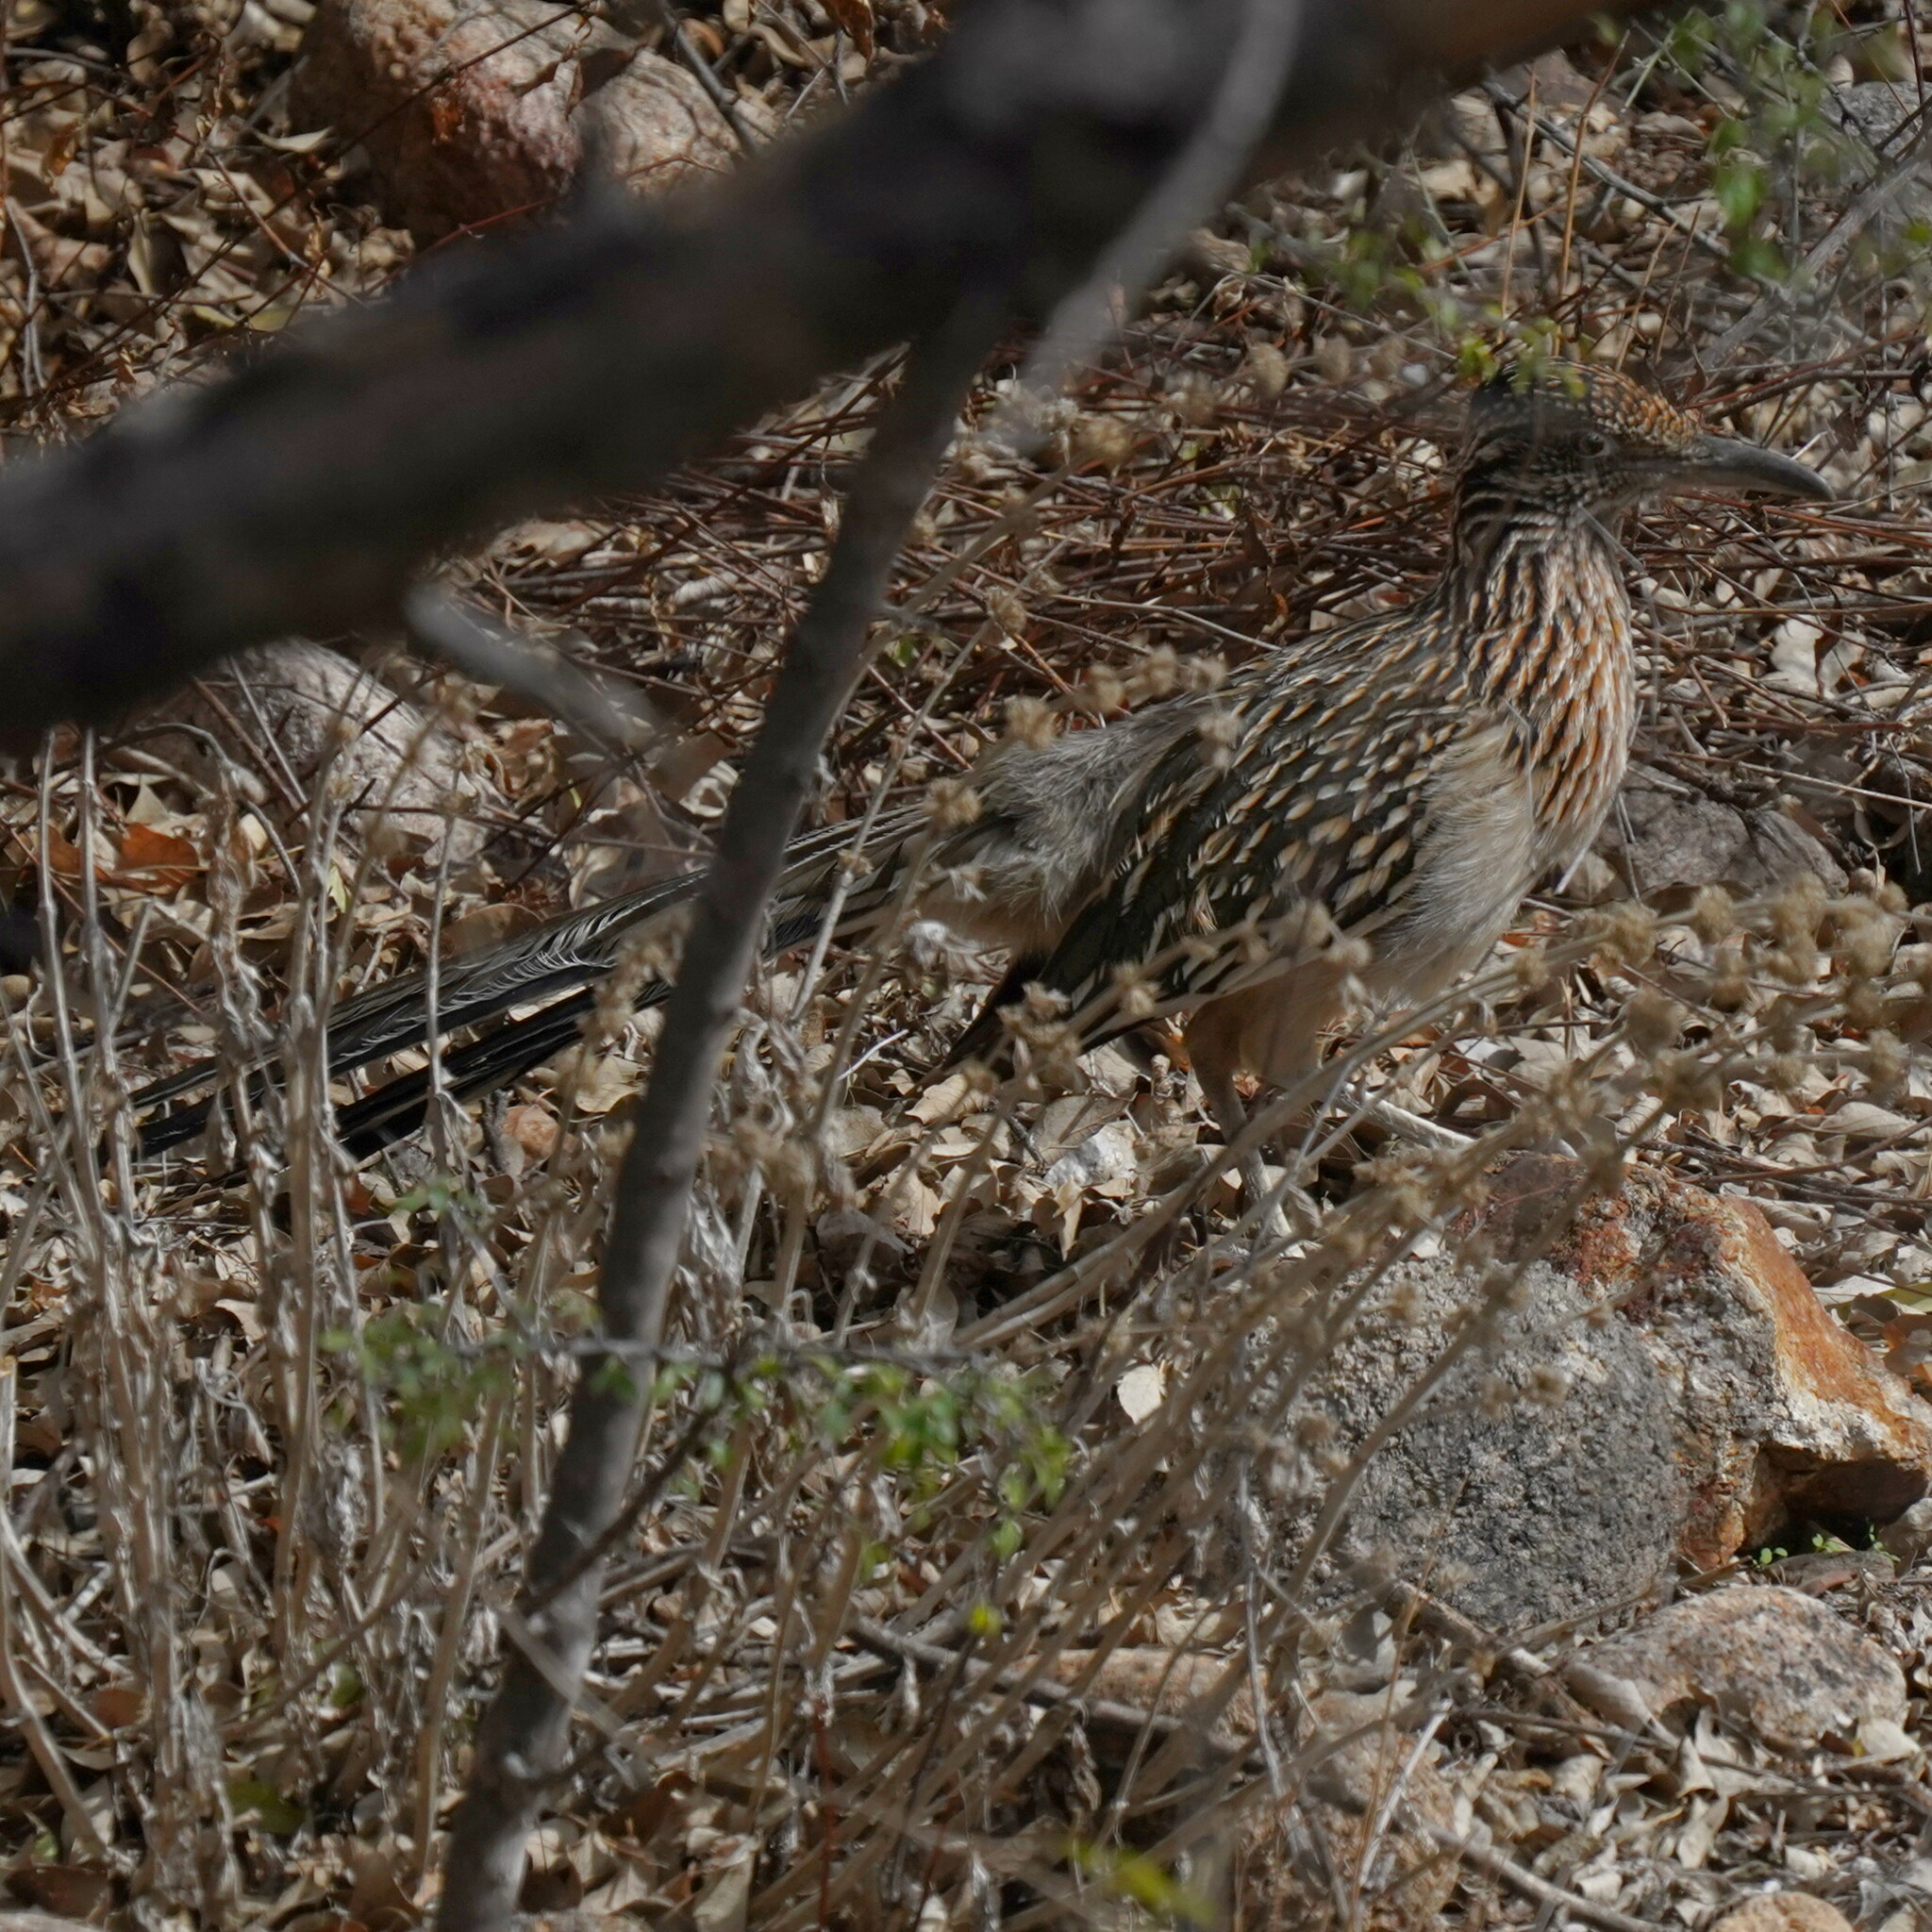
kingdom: Animalia
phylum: Chordata
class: Aves
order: Cuculiformes
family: Cuculidae
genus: Geococcyx
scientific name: Geococcyx californianus
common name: Greater roadrunner
